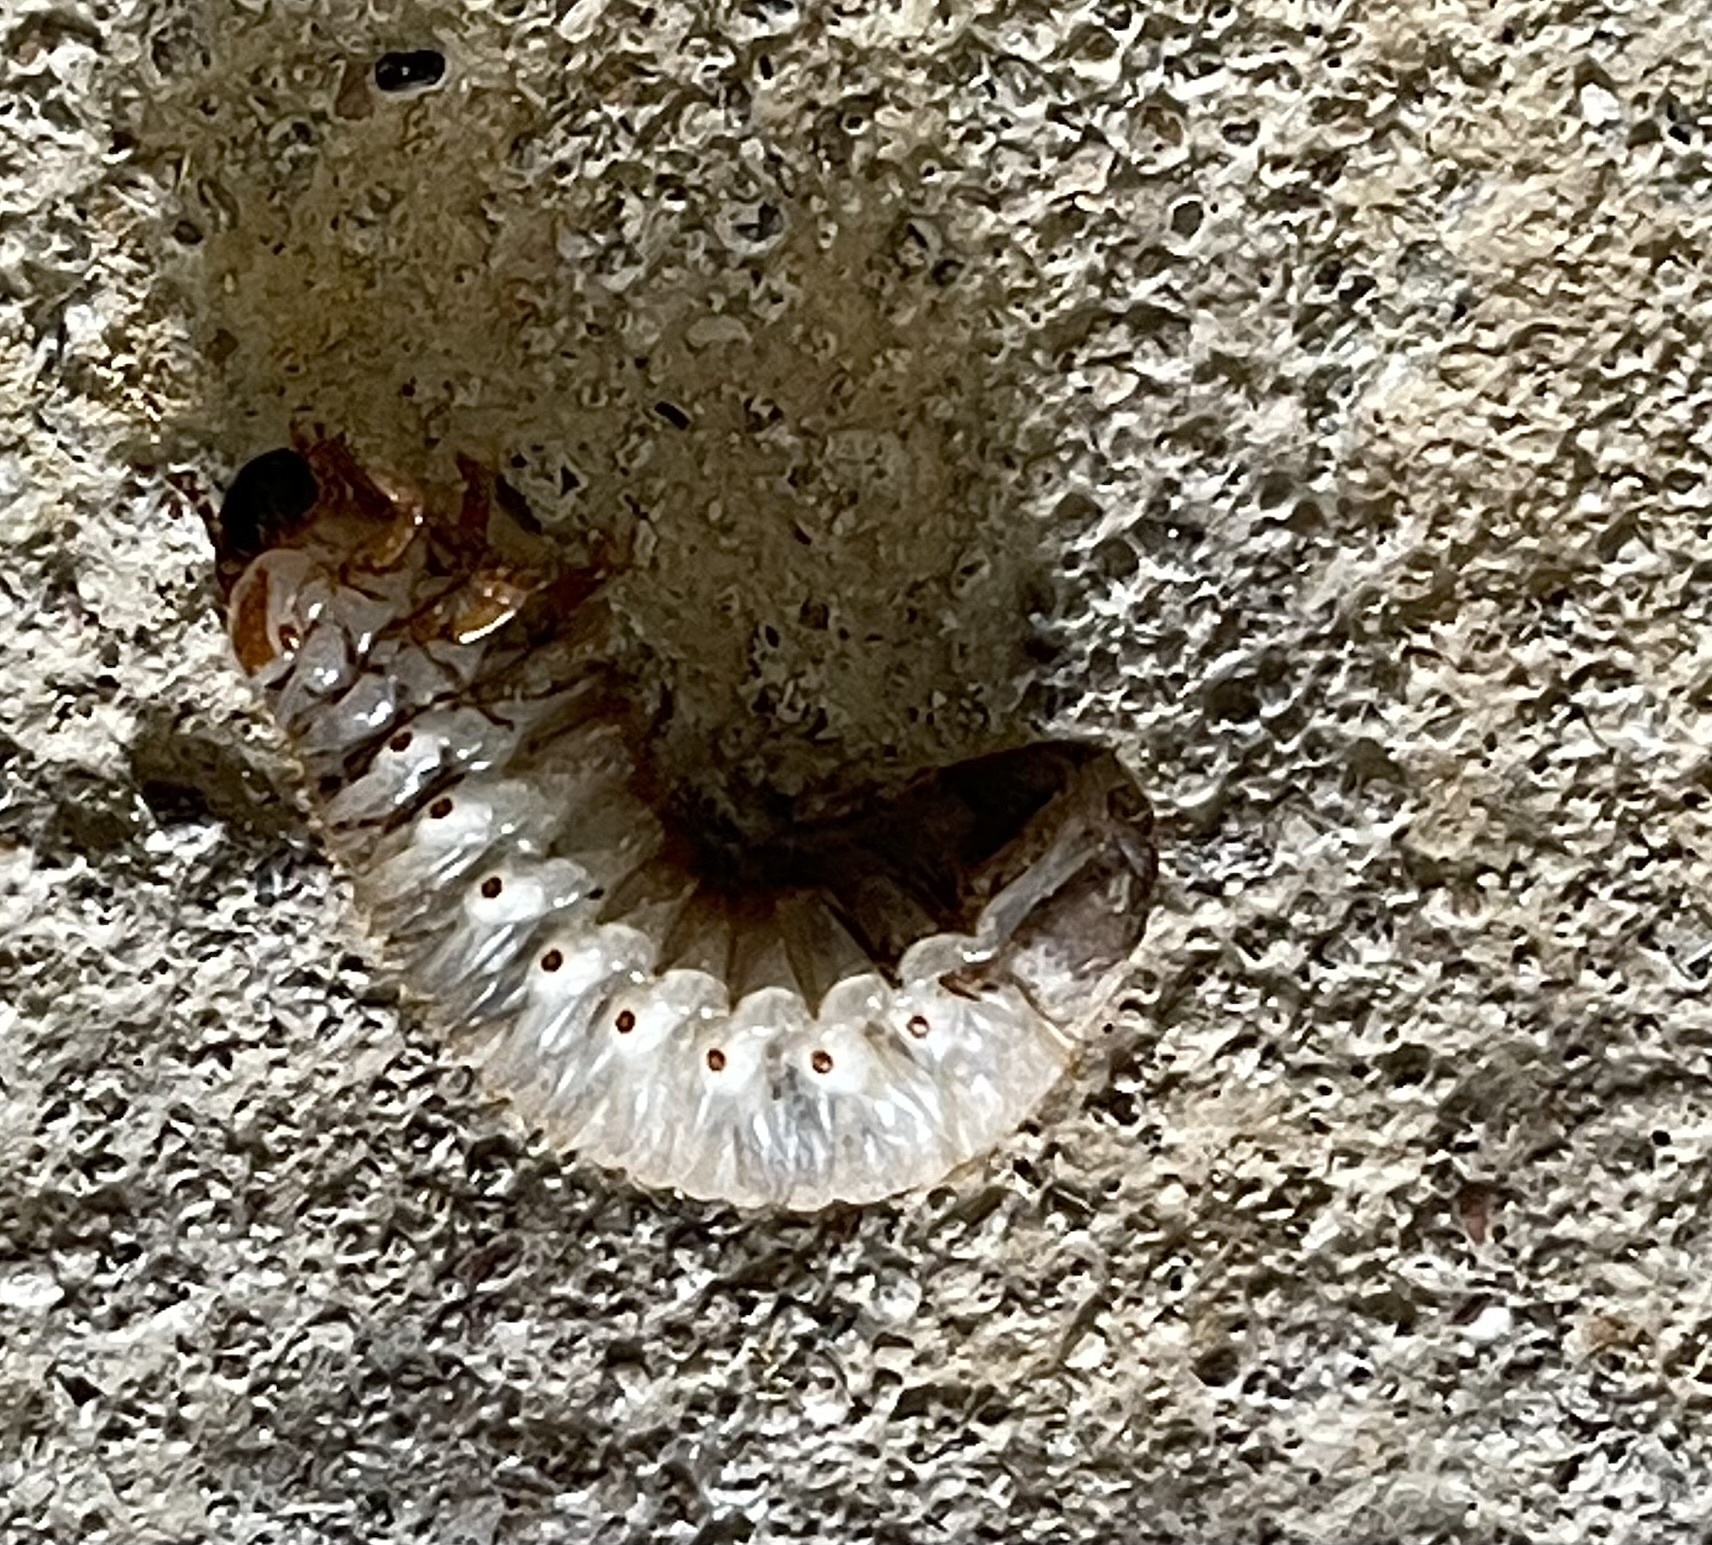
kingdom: Animalia
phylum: Arthropoda
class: Insecta
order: Coleoptera
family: Scarabaeidae
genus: Dynastes
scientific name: Dynastes tityus
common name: Eastern hercules beetle
